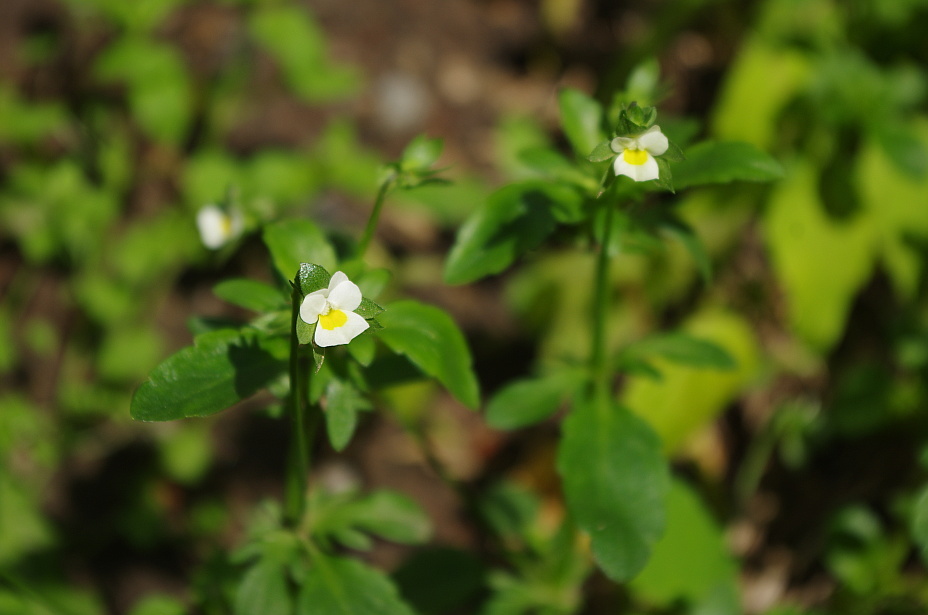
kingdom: Plantae
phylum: Tracheophyta
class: Magnoliopsida
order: Malpighiales
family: Violaceae
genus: Viola
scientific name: Viola arvensis
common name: Field pansy
